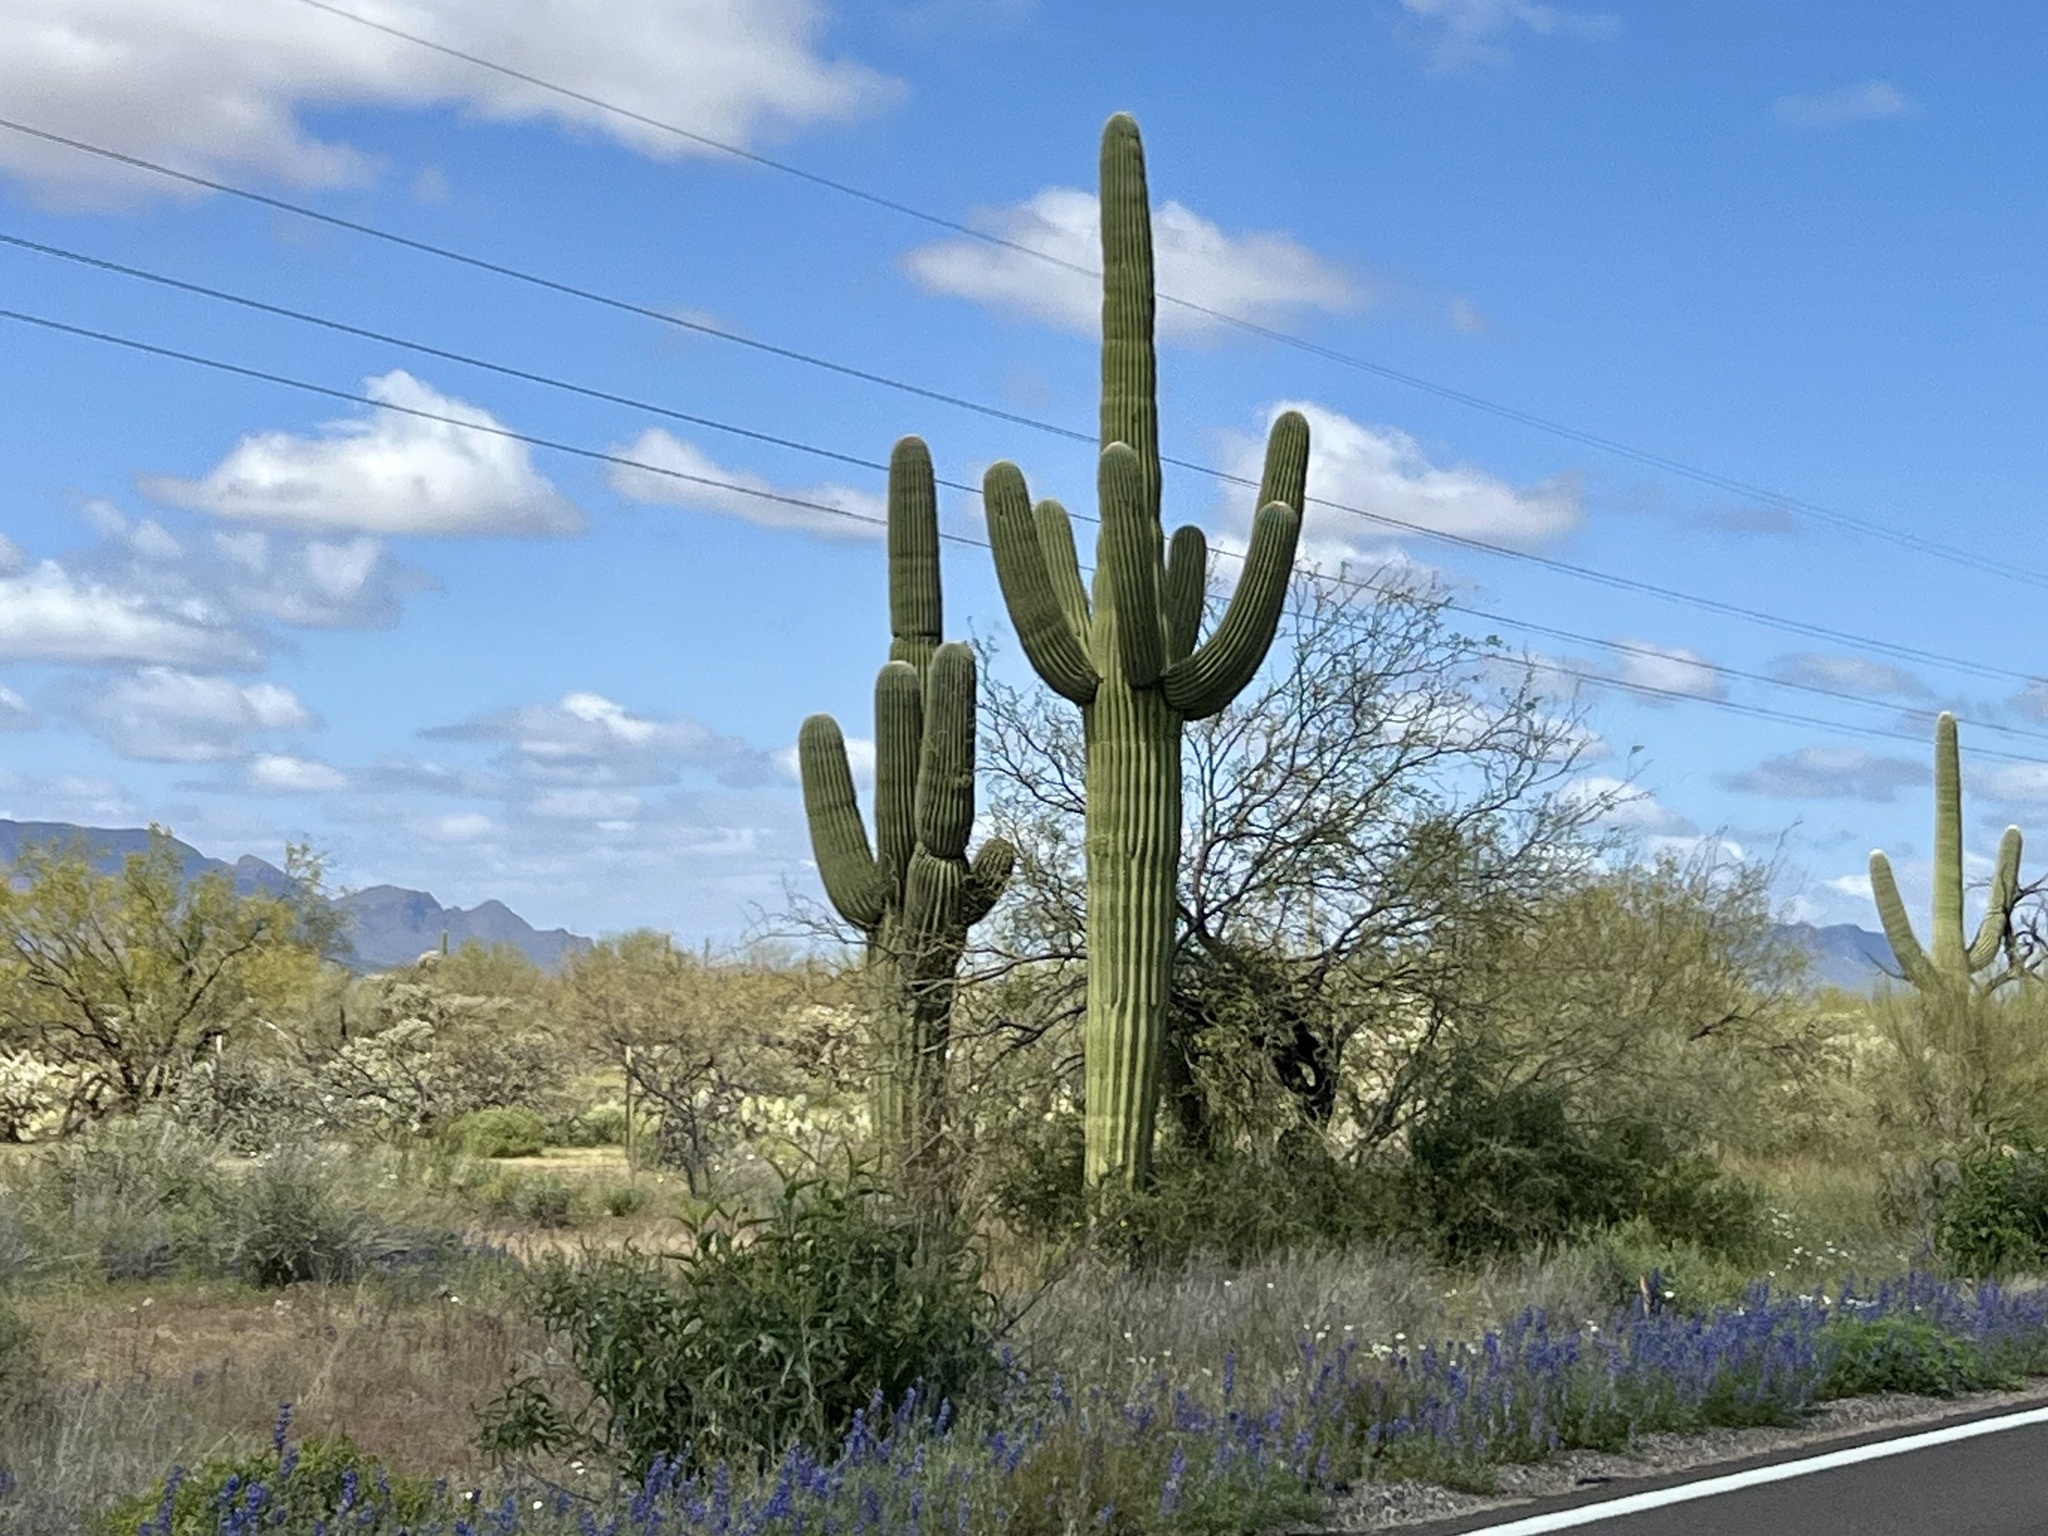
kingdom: Plantae
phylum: Tracheophyta
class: Magnoliopsida
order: Caryophyllales
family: Cactaceae
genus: Carnegiea
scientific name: Carnegiea gigantea
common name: Saguaro
